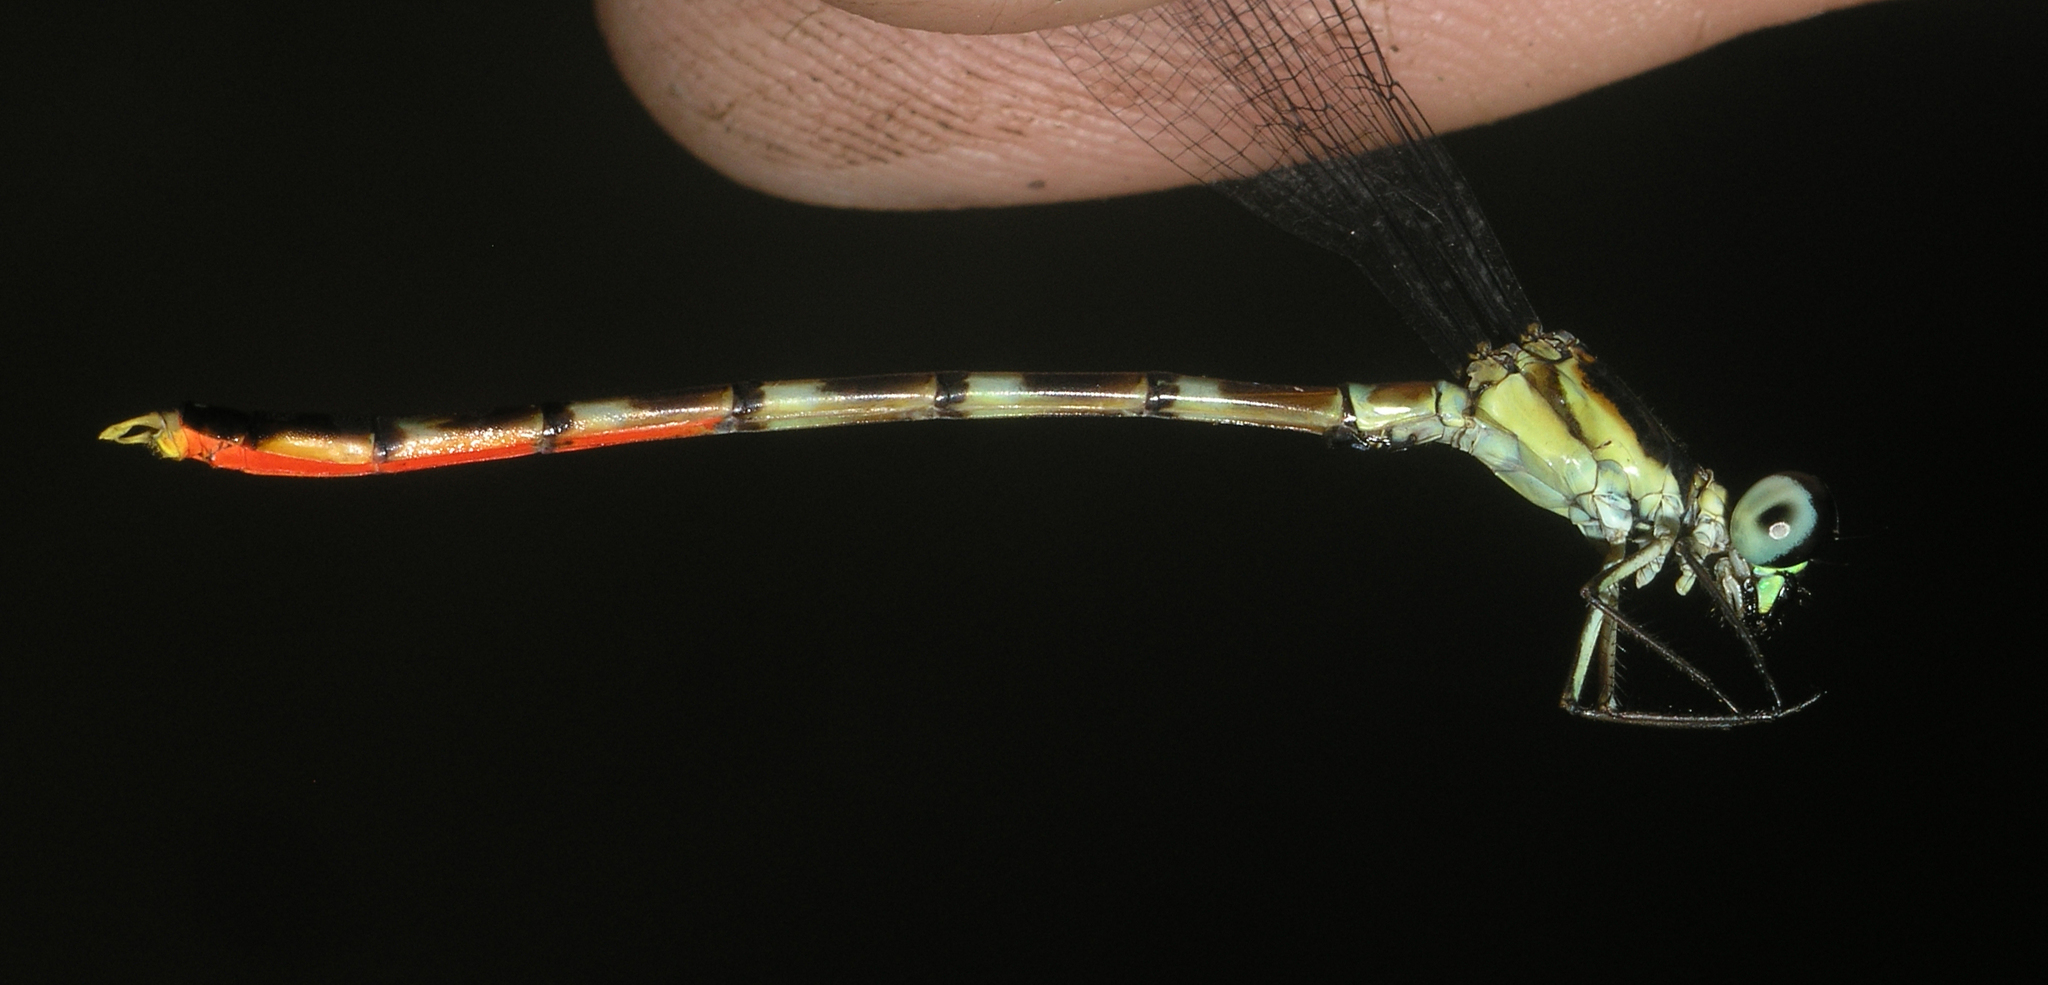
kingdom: Animalia
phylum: Arthropoda
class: Insecta
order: Odonata
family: Philosinidae
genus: Rhinagrion
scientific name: Rhinagrion hainanense
